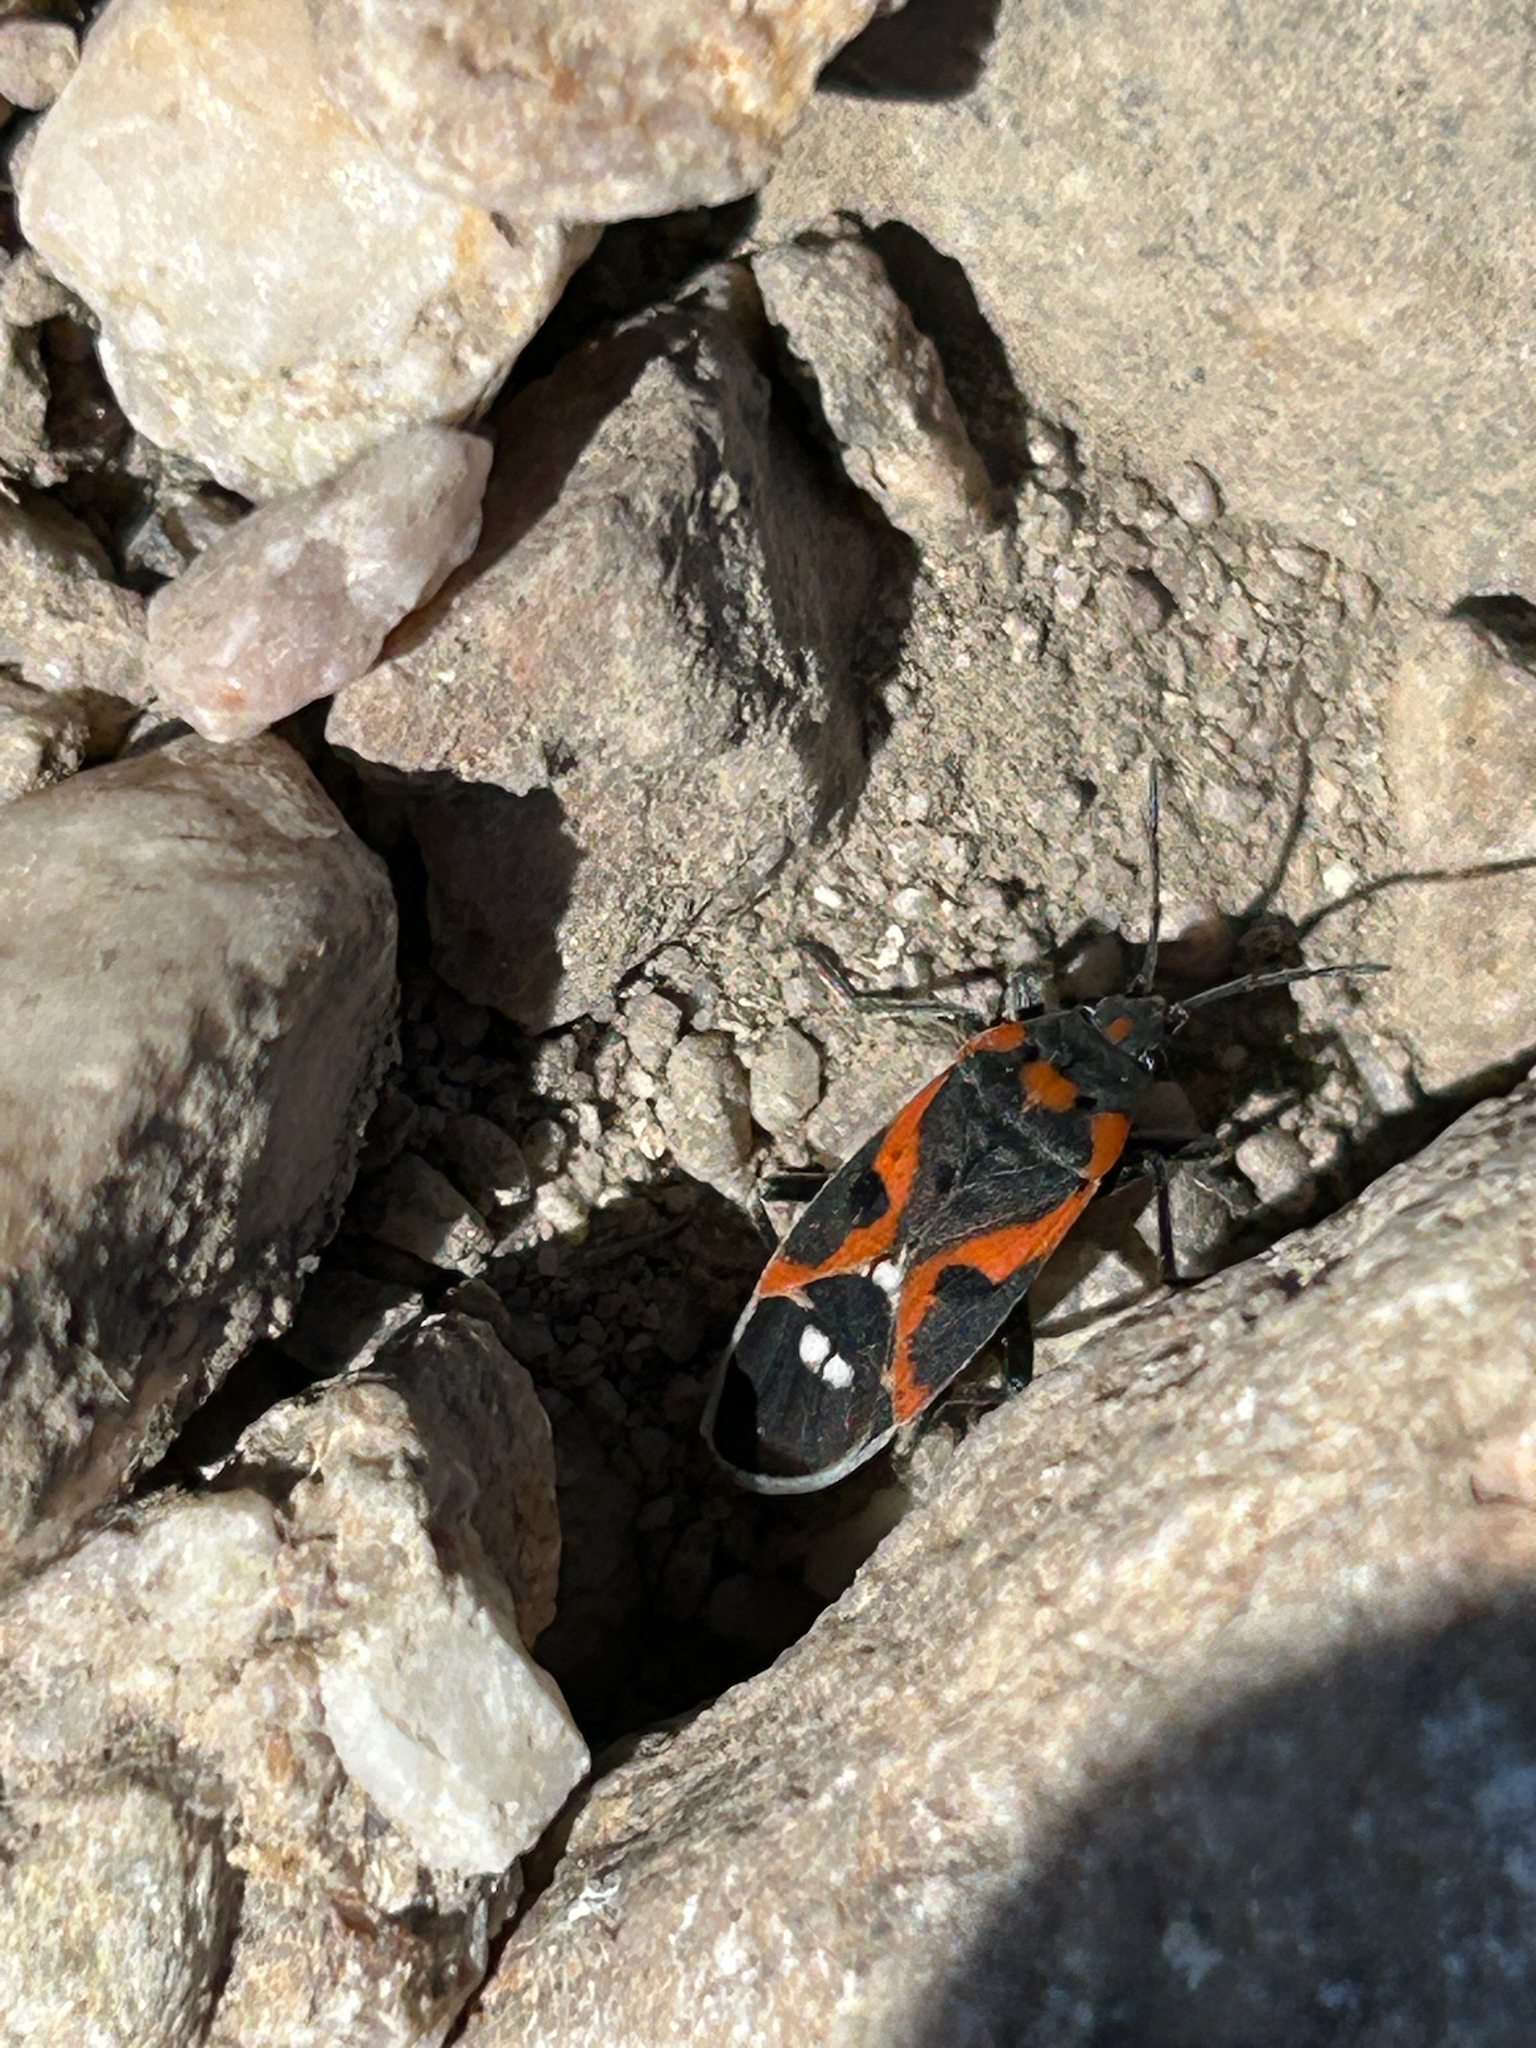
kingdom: Animalia
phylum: Arthropoda
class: Insecta
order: Hemiptera
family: Lygaeidae
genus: Lygaeus
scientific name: Lygaeus kalmii
